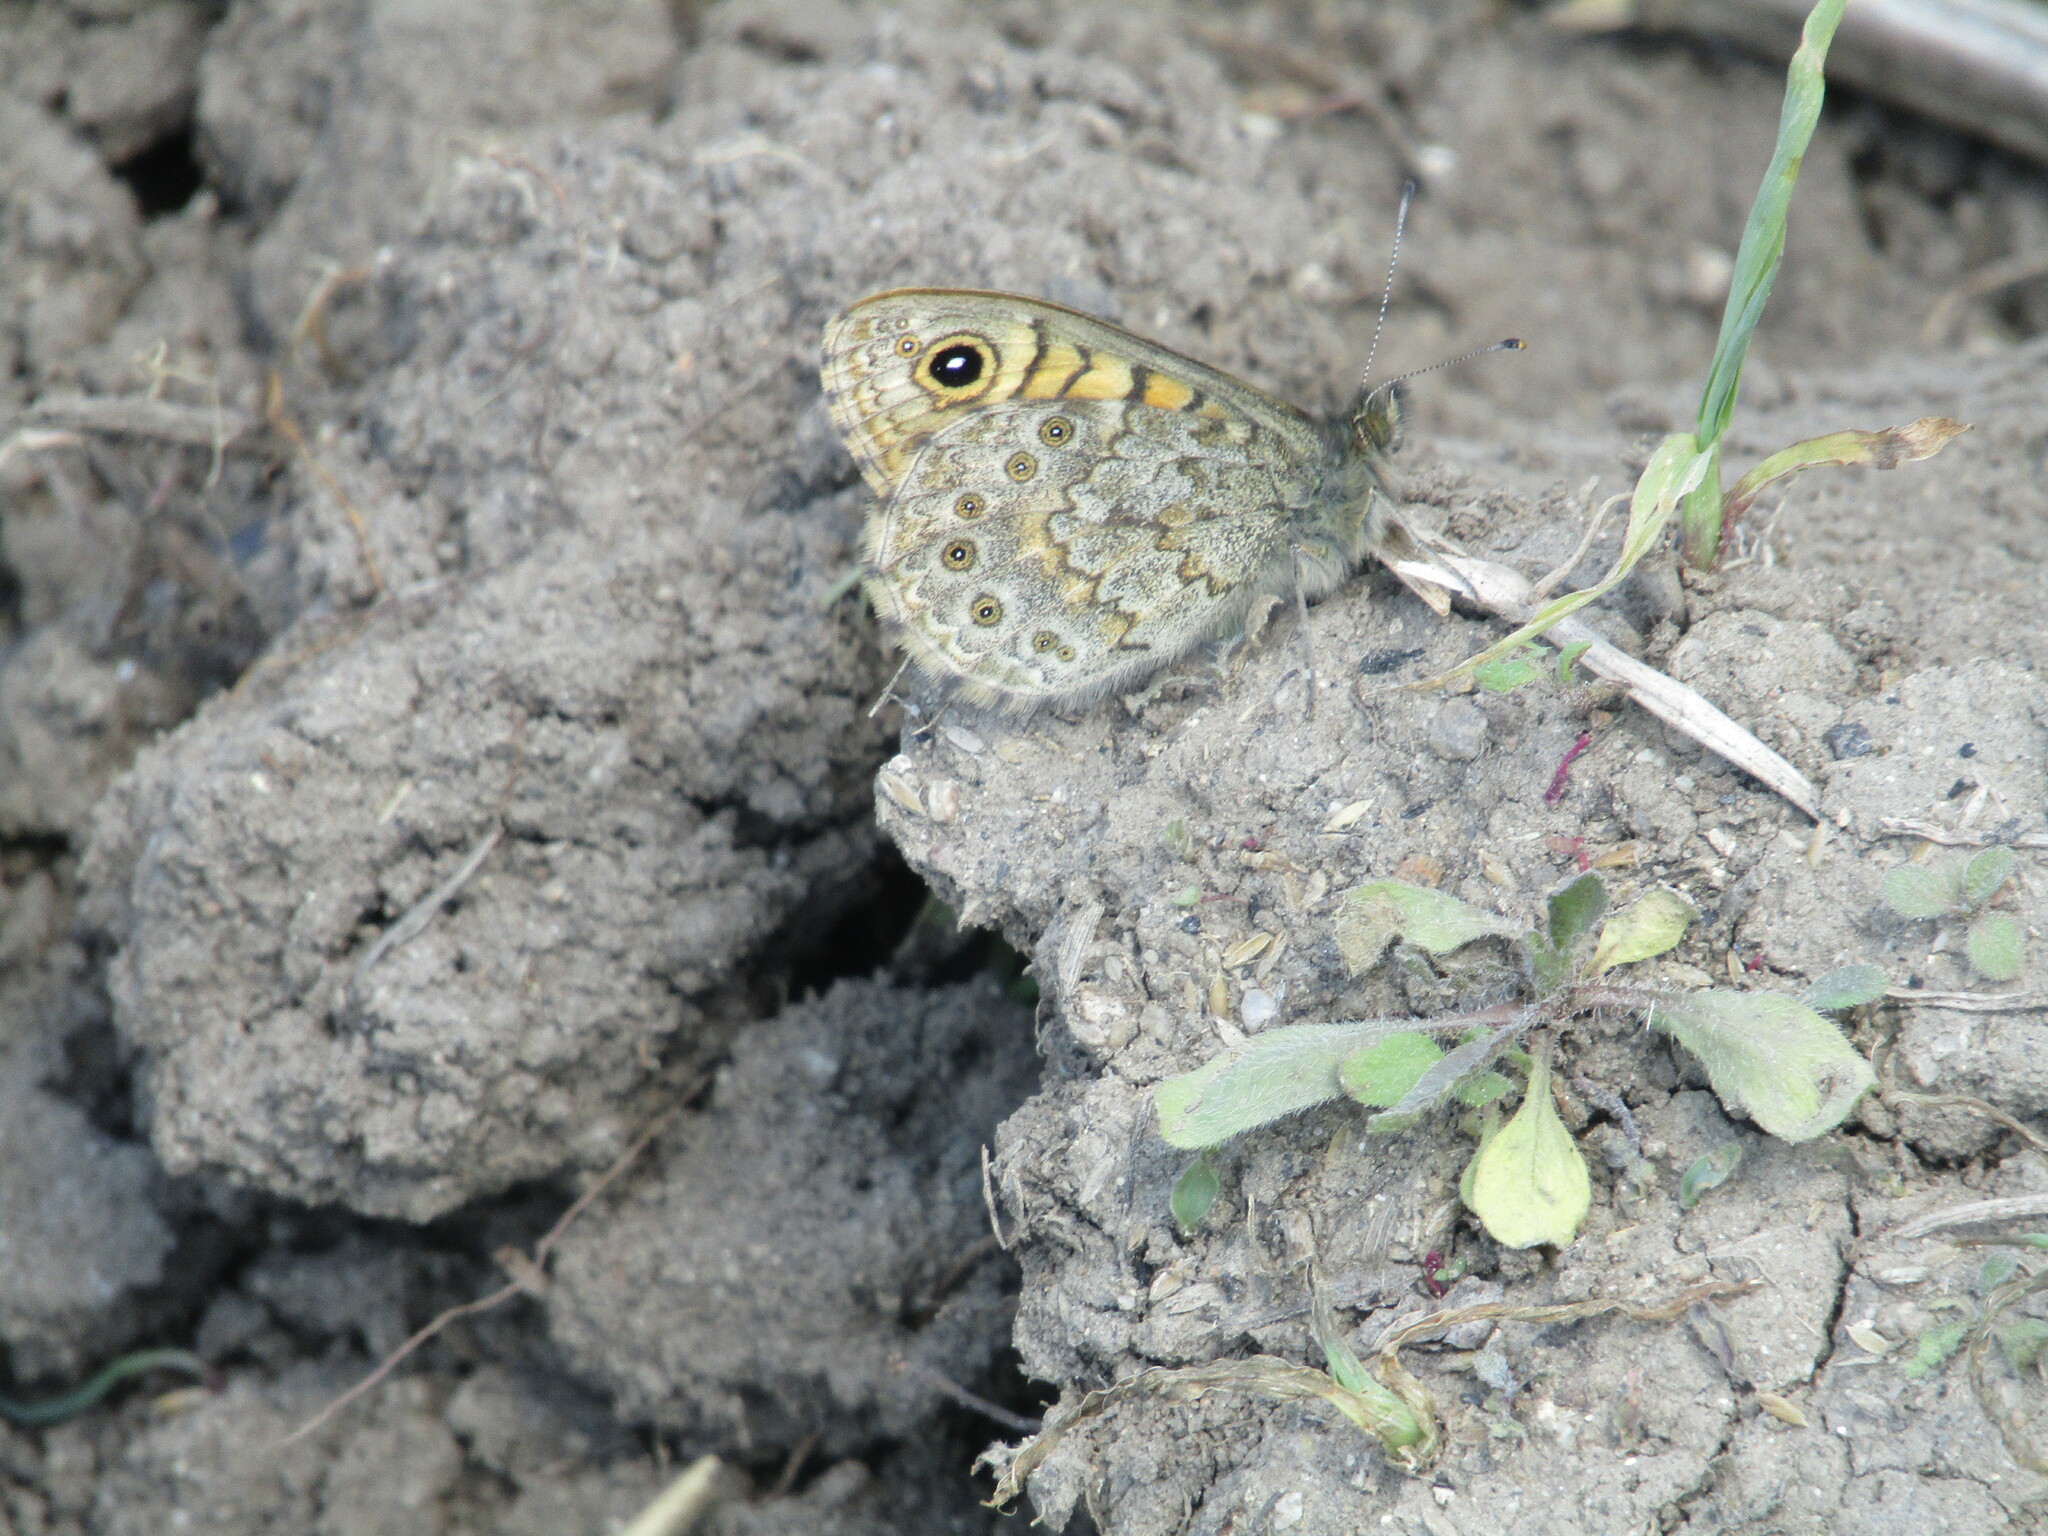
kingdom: Animalia
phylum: Arthropoda
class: Insecta
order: Lepidoptera
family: Nymphalidae
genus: Pararge
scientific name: Pararge Lasiommata megera
